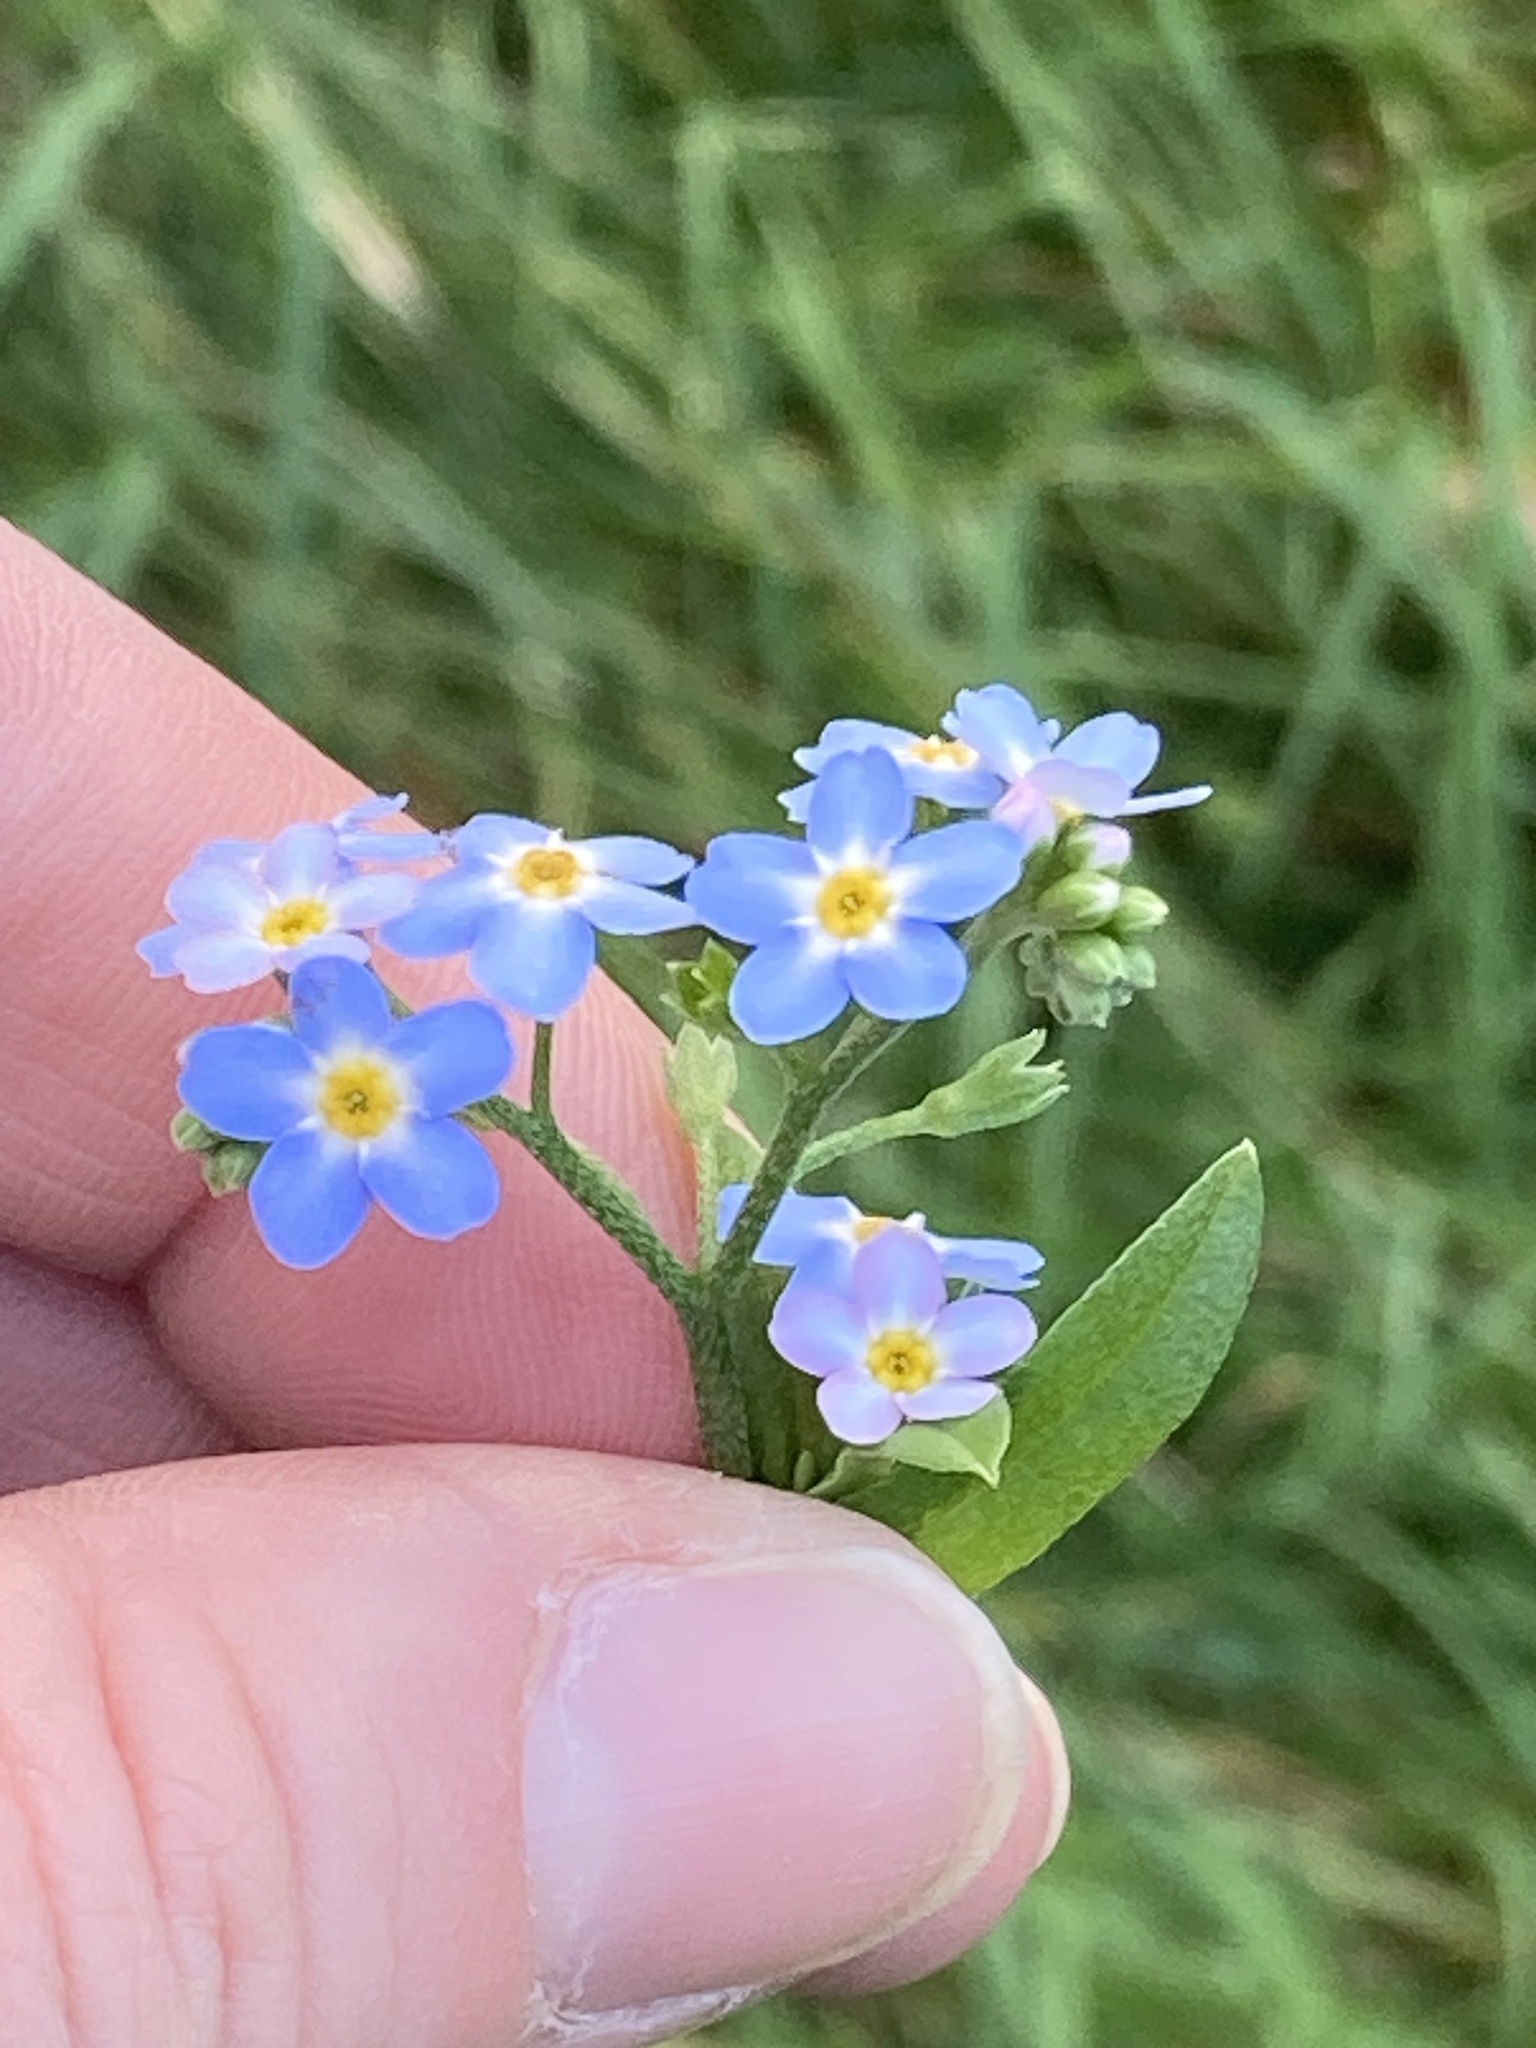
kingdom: Plantae
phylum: Tracheophyta
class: Magnoliopsida
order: Boraginales
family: Boraginaceae
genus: Myosotis
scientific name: Myosotis scorpioides
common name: Water forget-me-not
